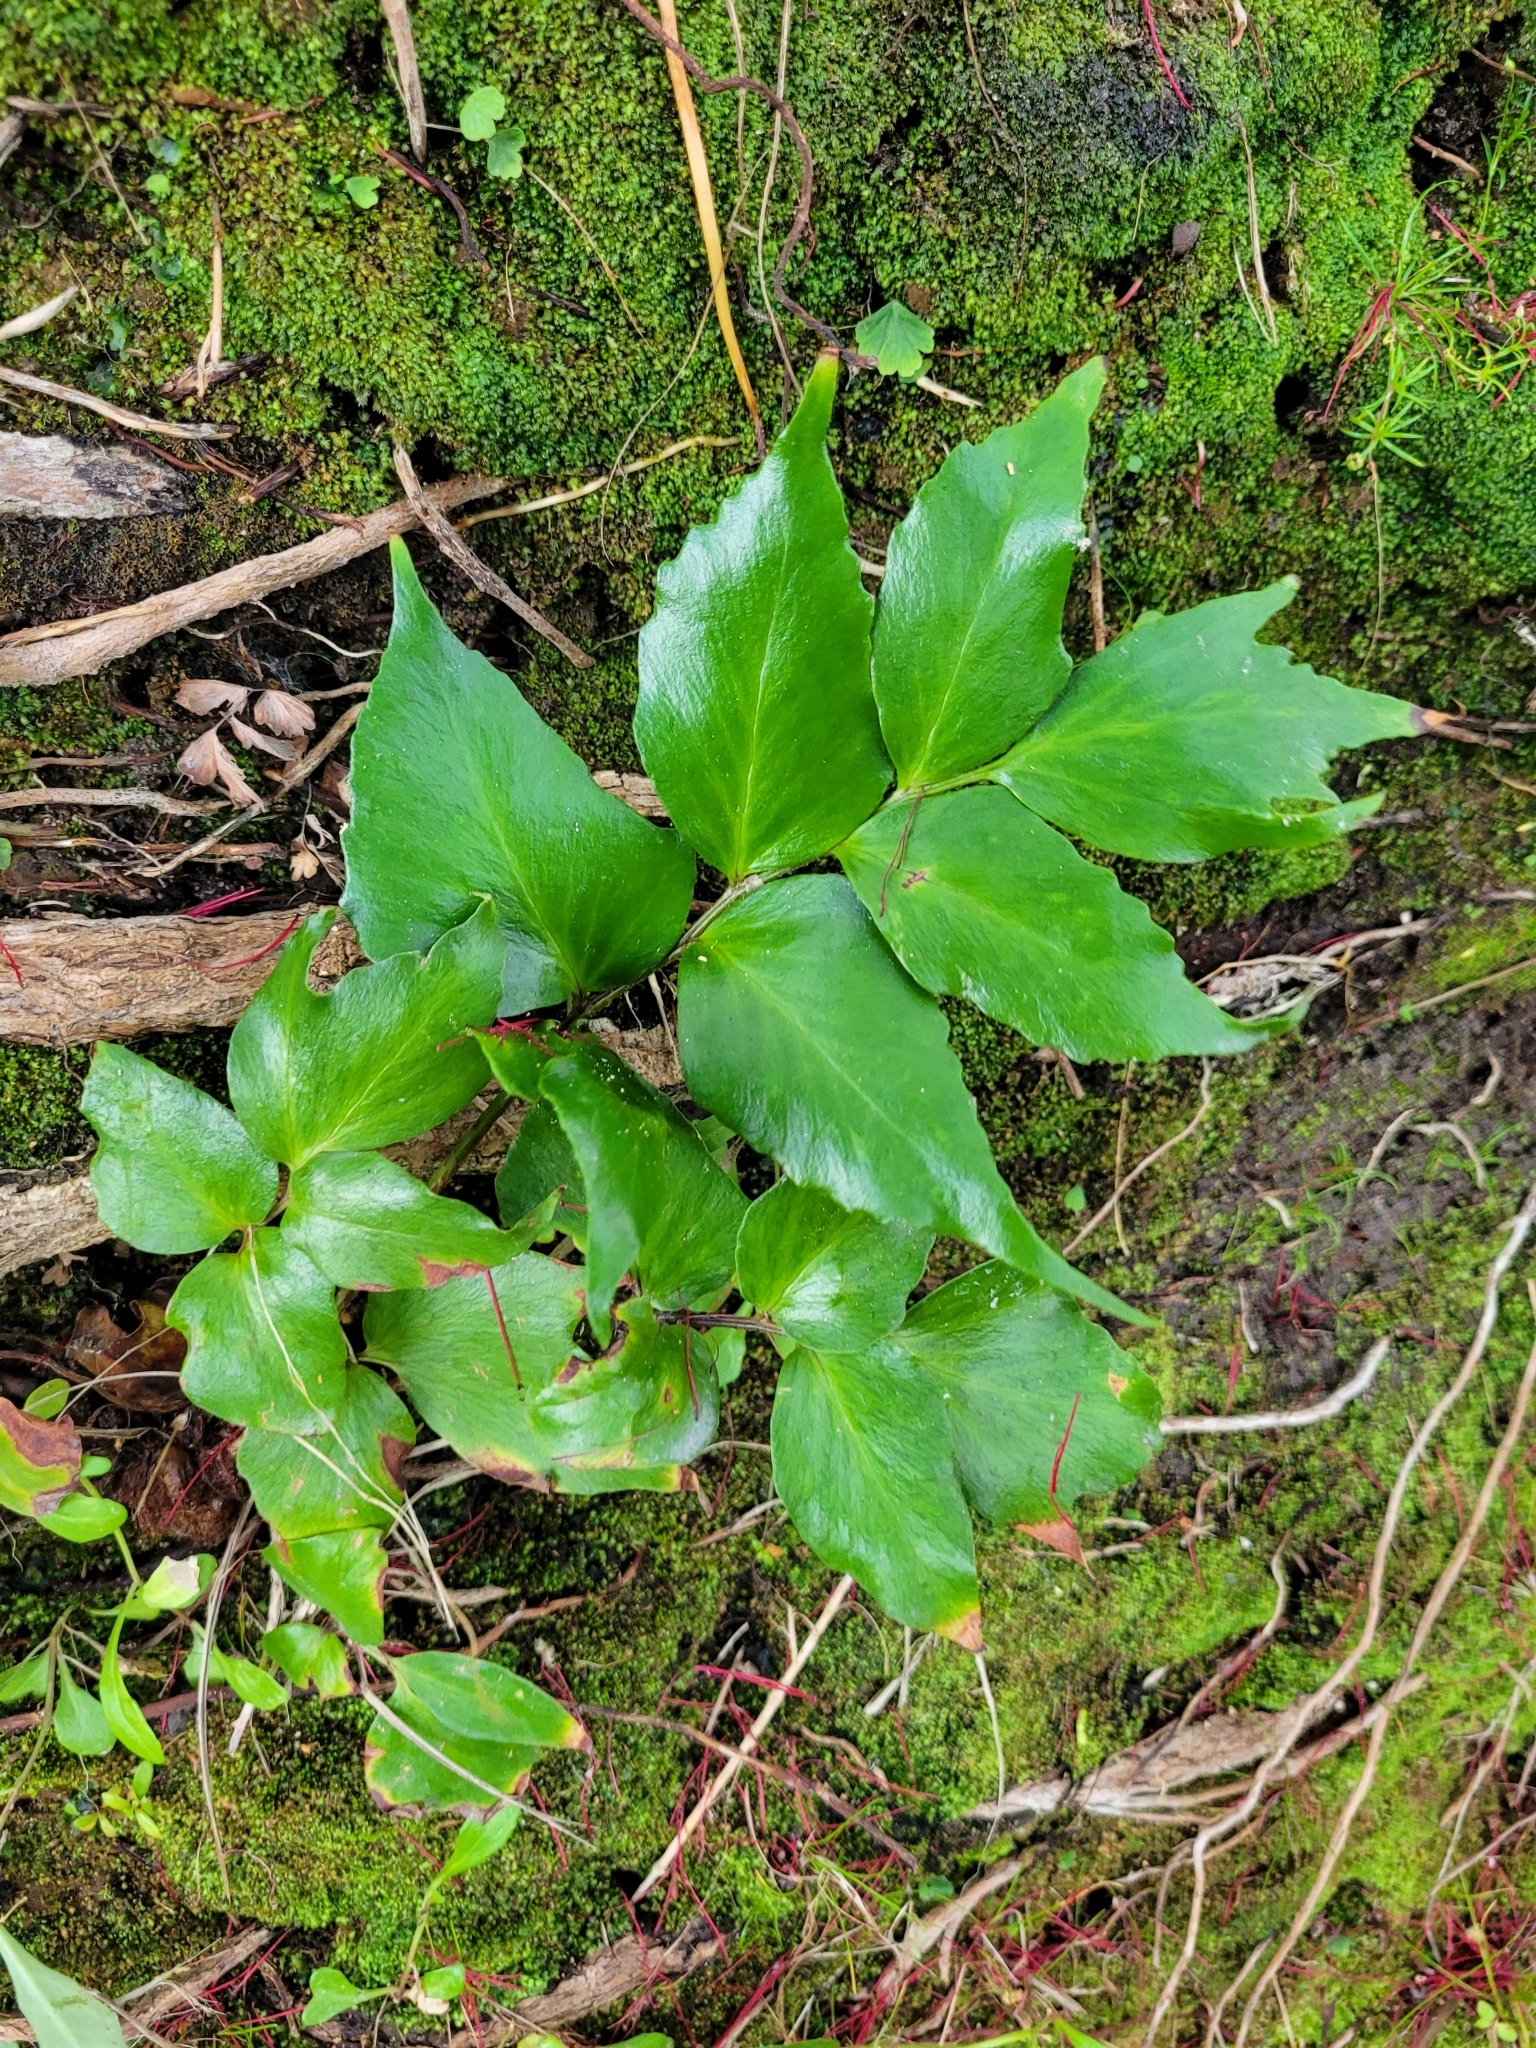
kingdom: Plantae
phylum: Tracheophyta
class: Polypodiopsida
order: Polypodiales
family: Dryopteridaceae
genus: Cyrtomium
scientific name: Cyrtomium falcatum
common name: House holly-fern
